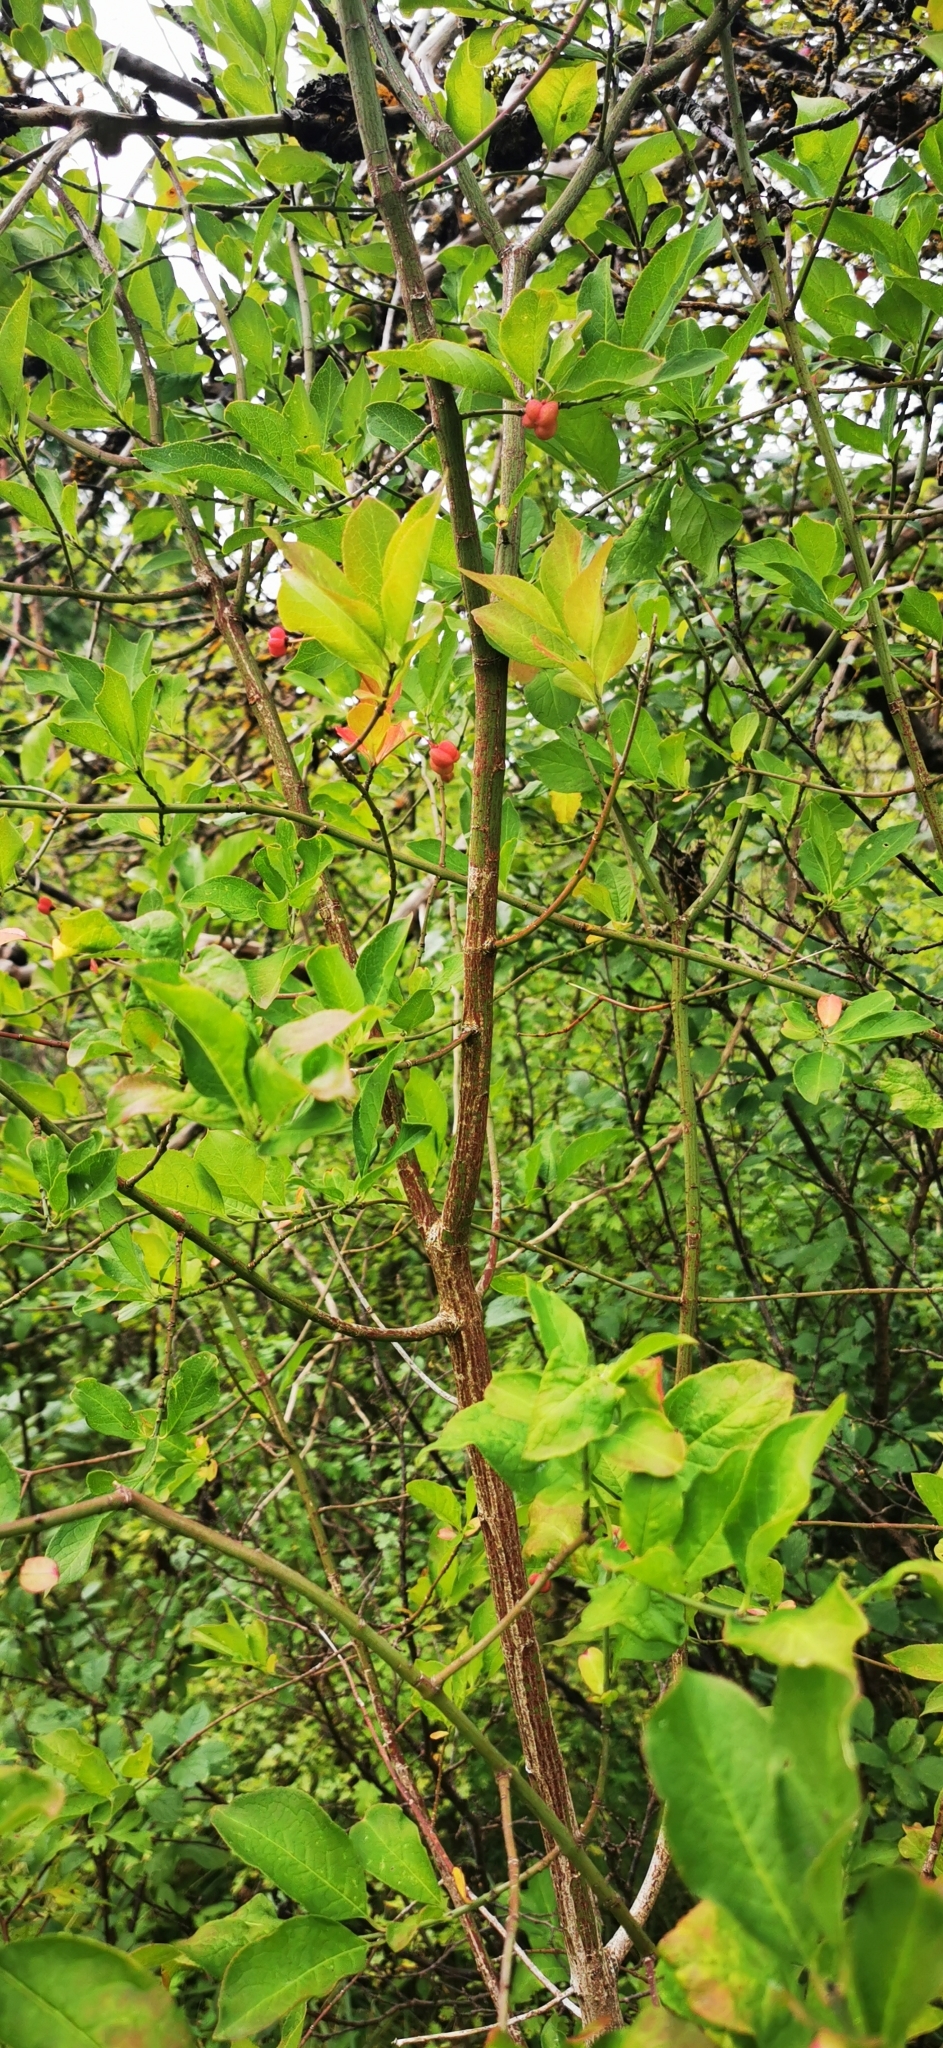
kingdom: Plantae
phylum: Tracheophyta
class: Magnoliopsida
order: Celastrales
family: Celastraceae
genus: Euonymus
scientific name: Euonymus europaeus
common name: Spindle
